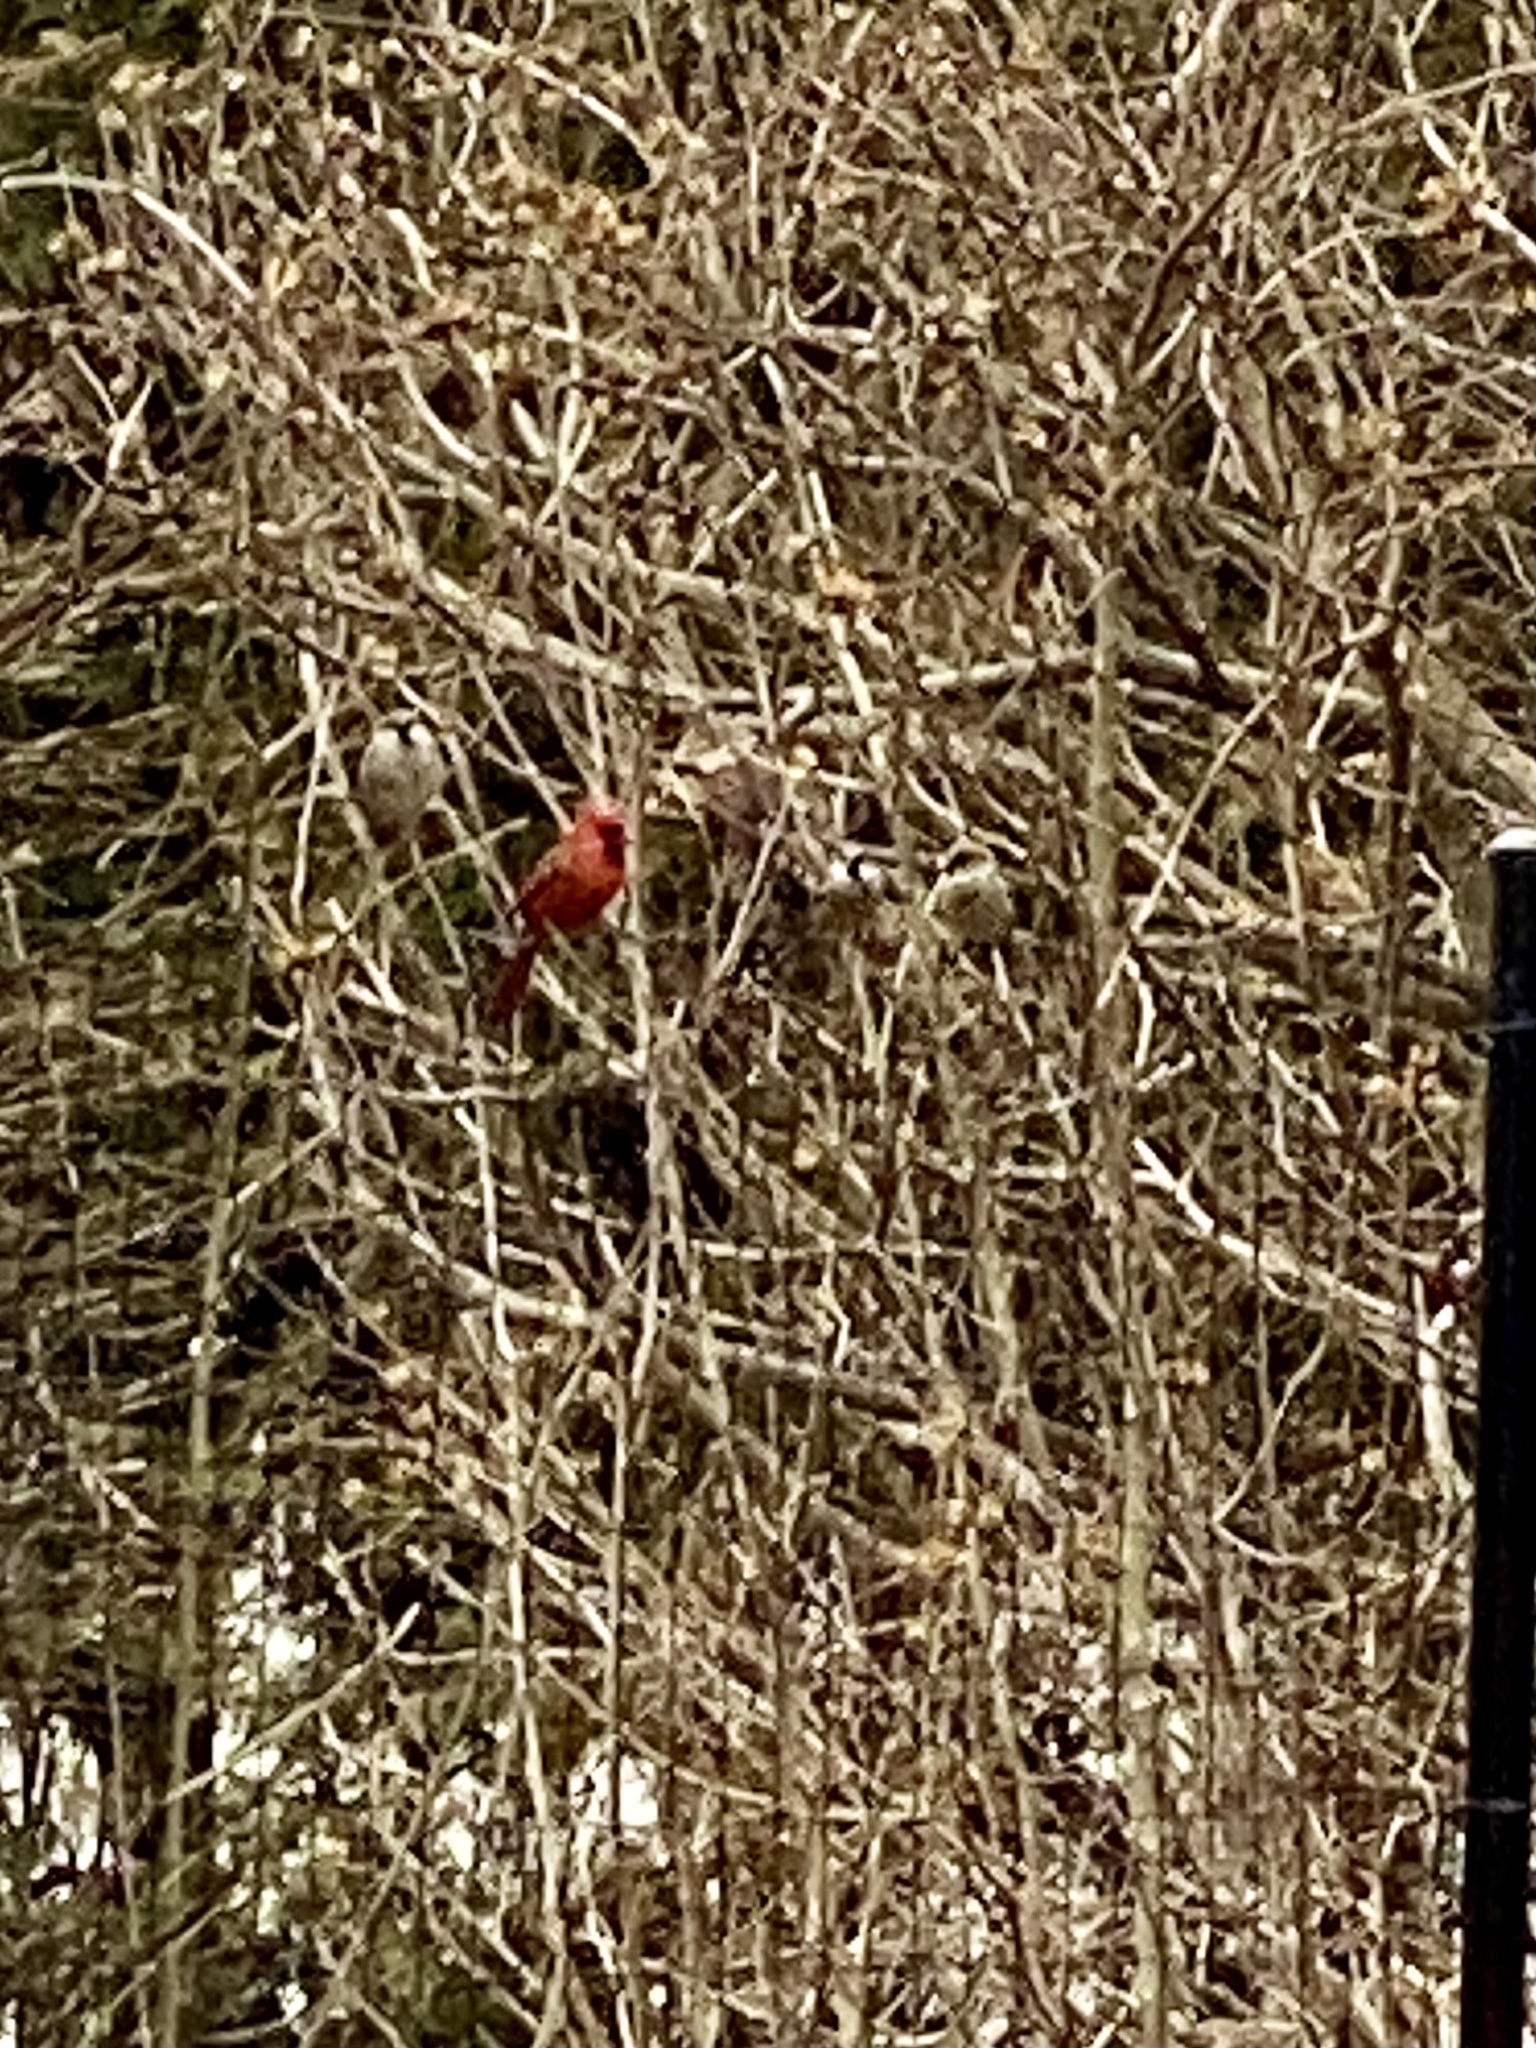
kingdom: Animalia
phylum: Chordata
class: Aves
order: Passeriformes
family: Cardinalidae
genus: Cardinalis
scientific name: Cardinalis cardinalis
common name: Northern cardinal
